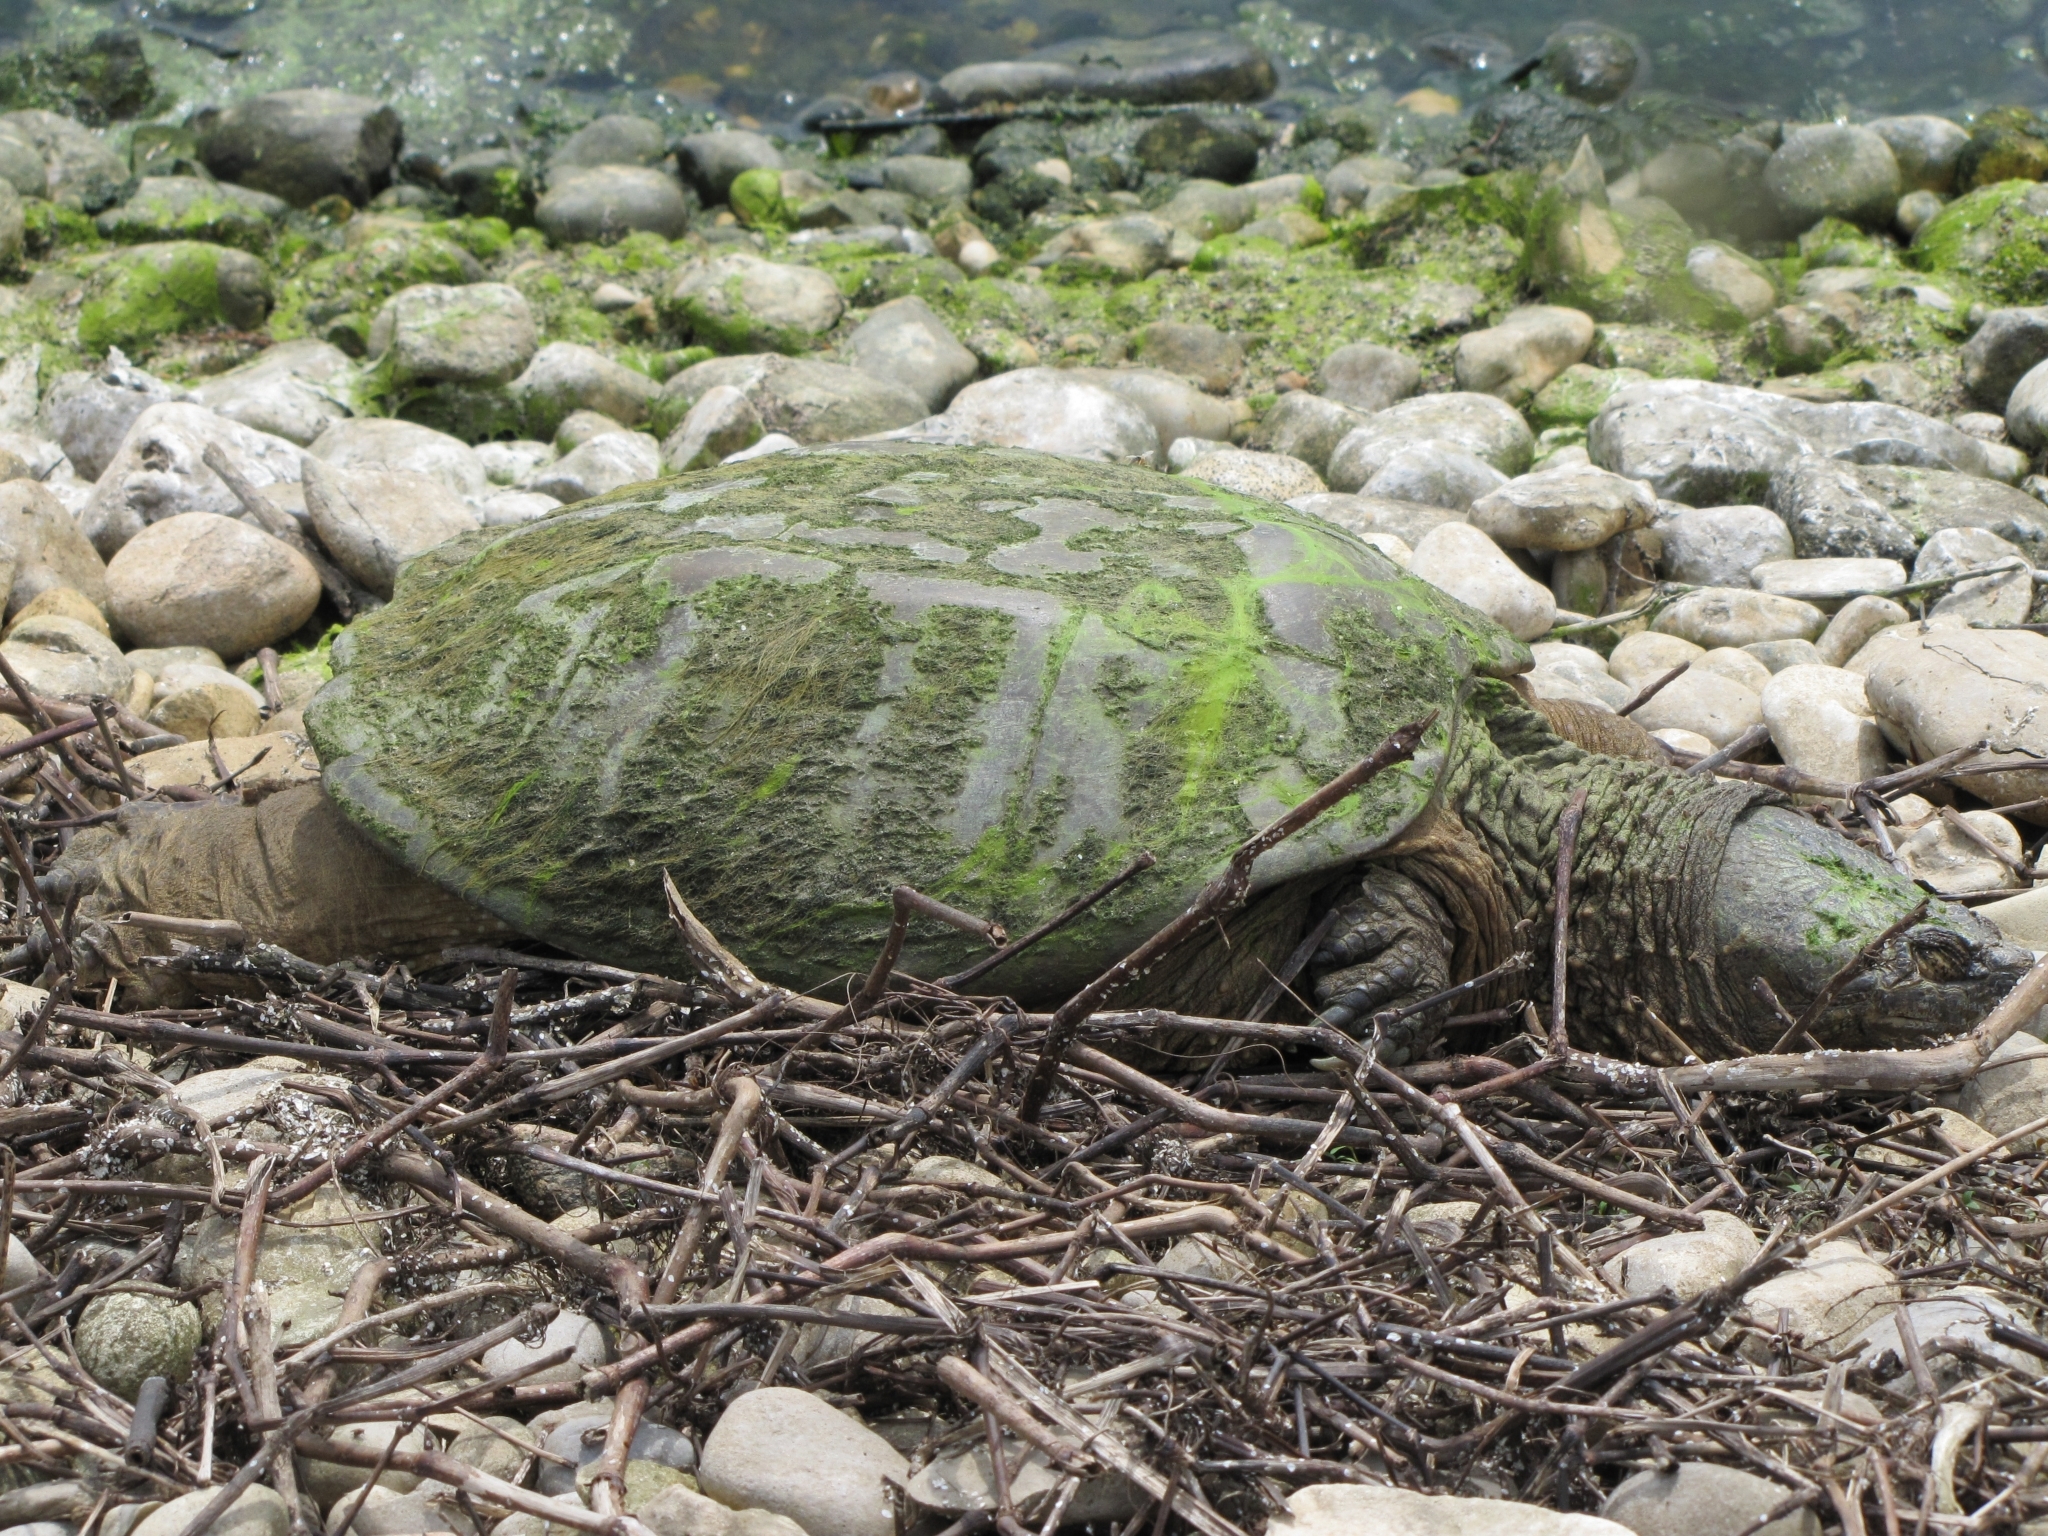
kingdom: Animalia
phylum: Chordata
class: Testudines
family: Chelydridae
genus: Chelydra
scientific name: Chelydra serpentina
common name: Common snapping turtle
